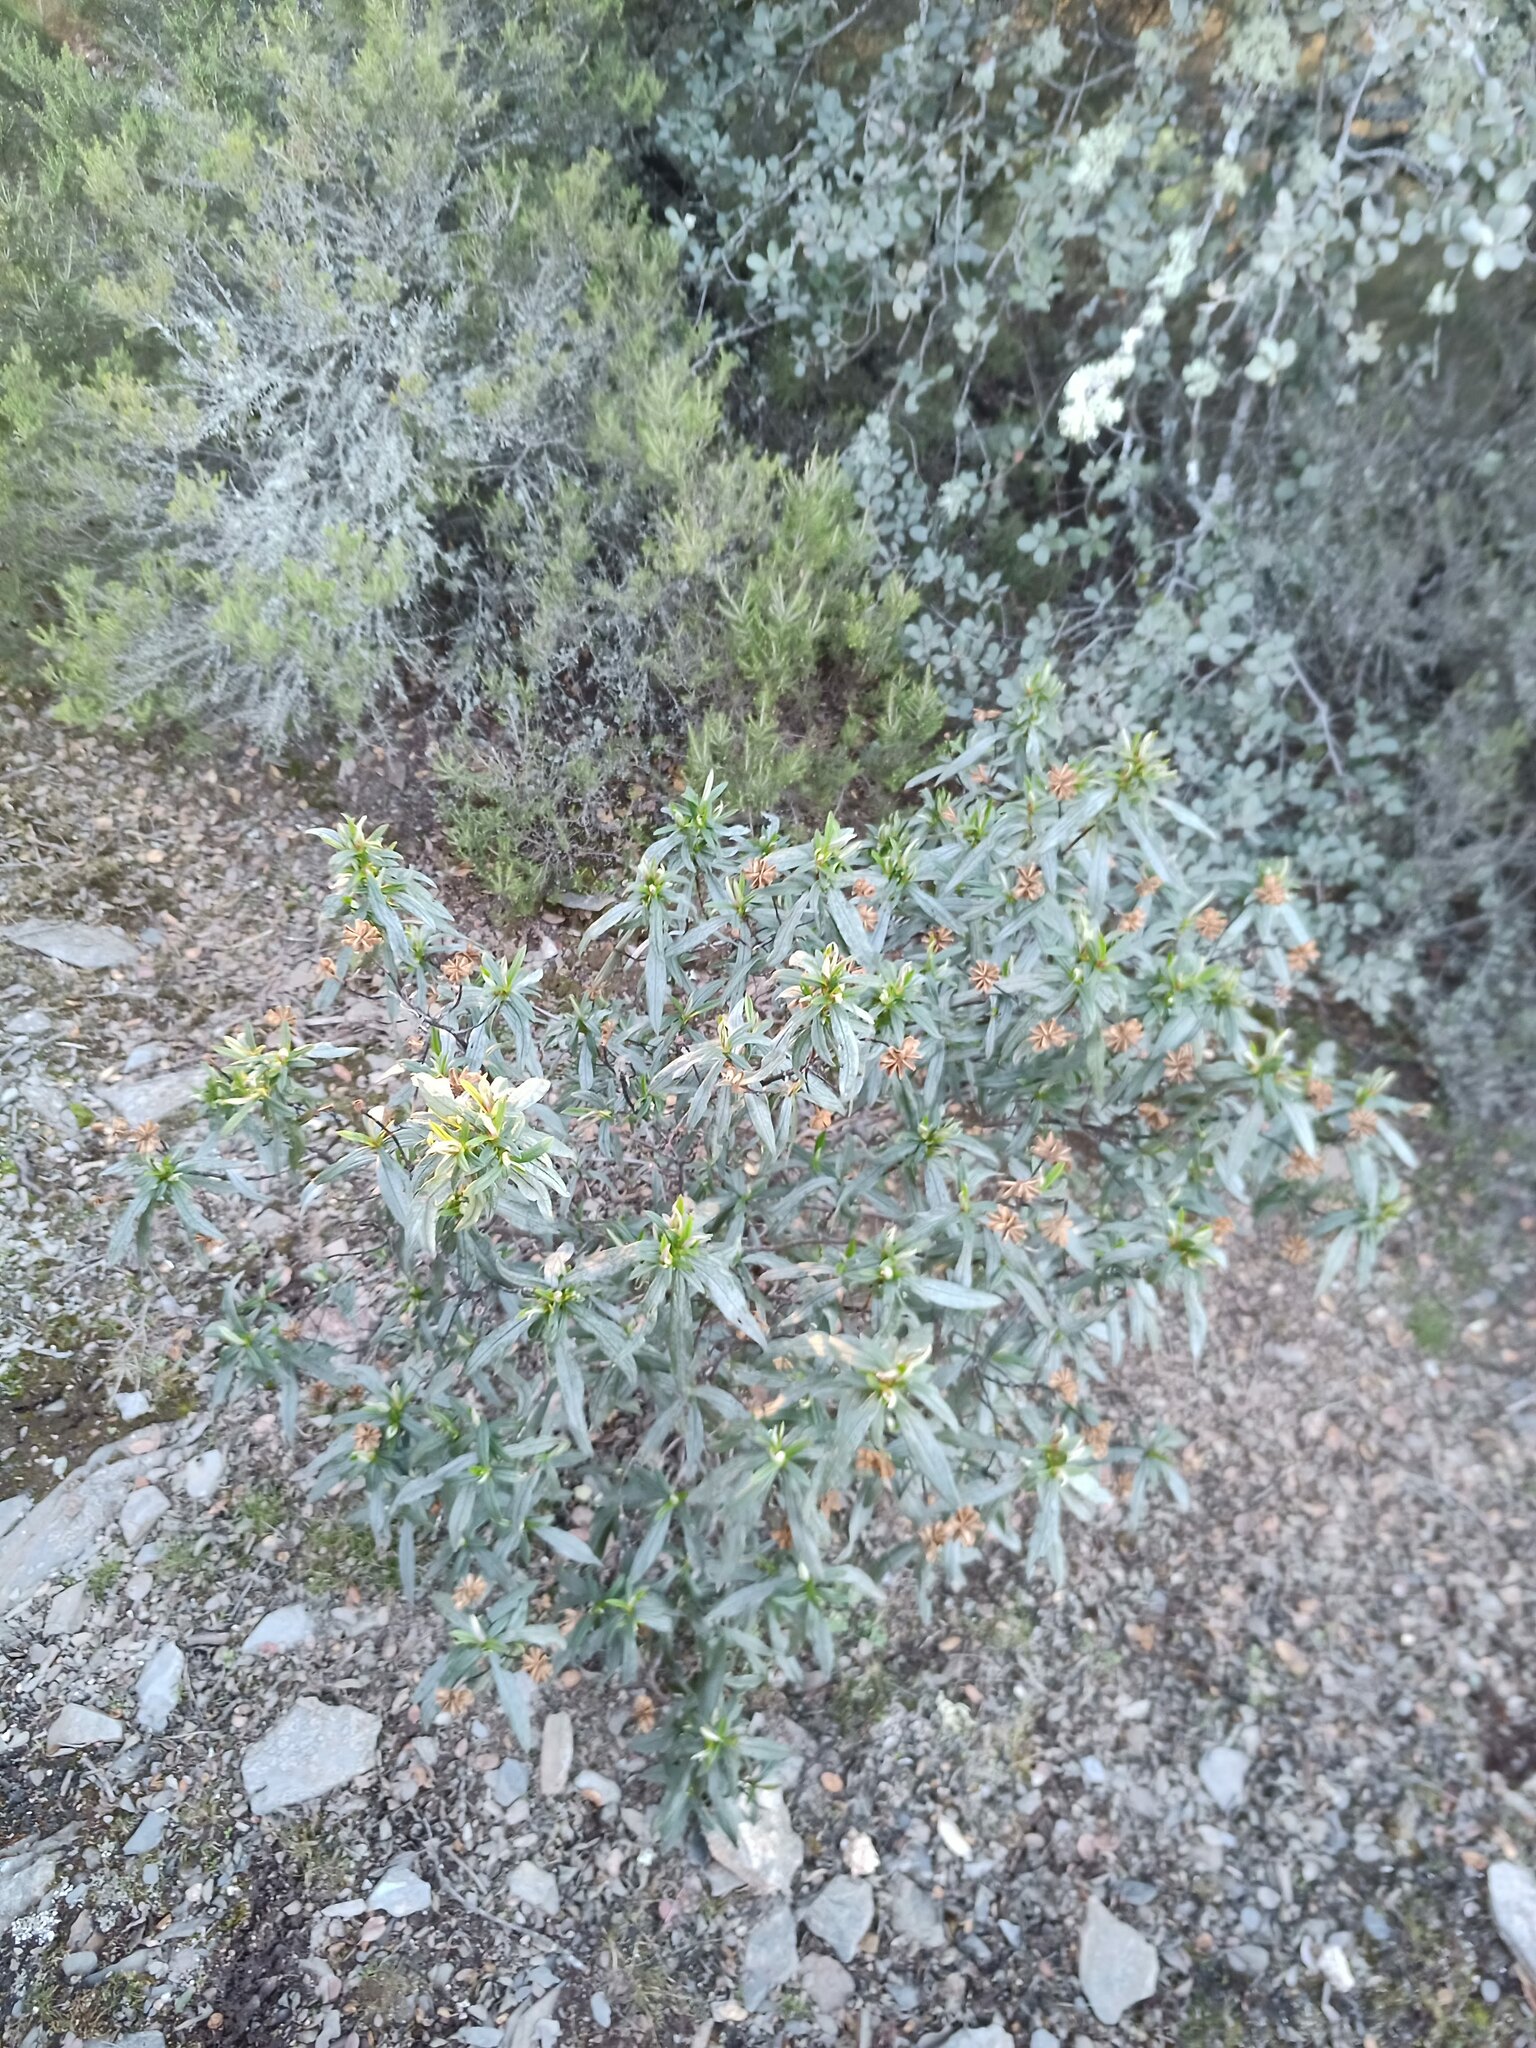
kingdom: Plantae
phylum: Tracheophyta
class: Magnoliopsida
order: Malvales
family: Cistaceae
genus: Cistus
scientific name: Cistus ladanifer
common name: Common gum cistus
